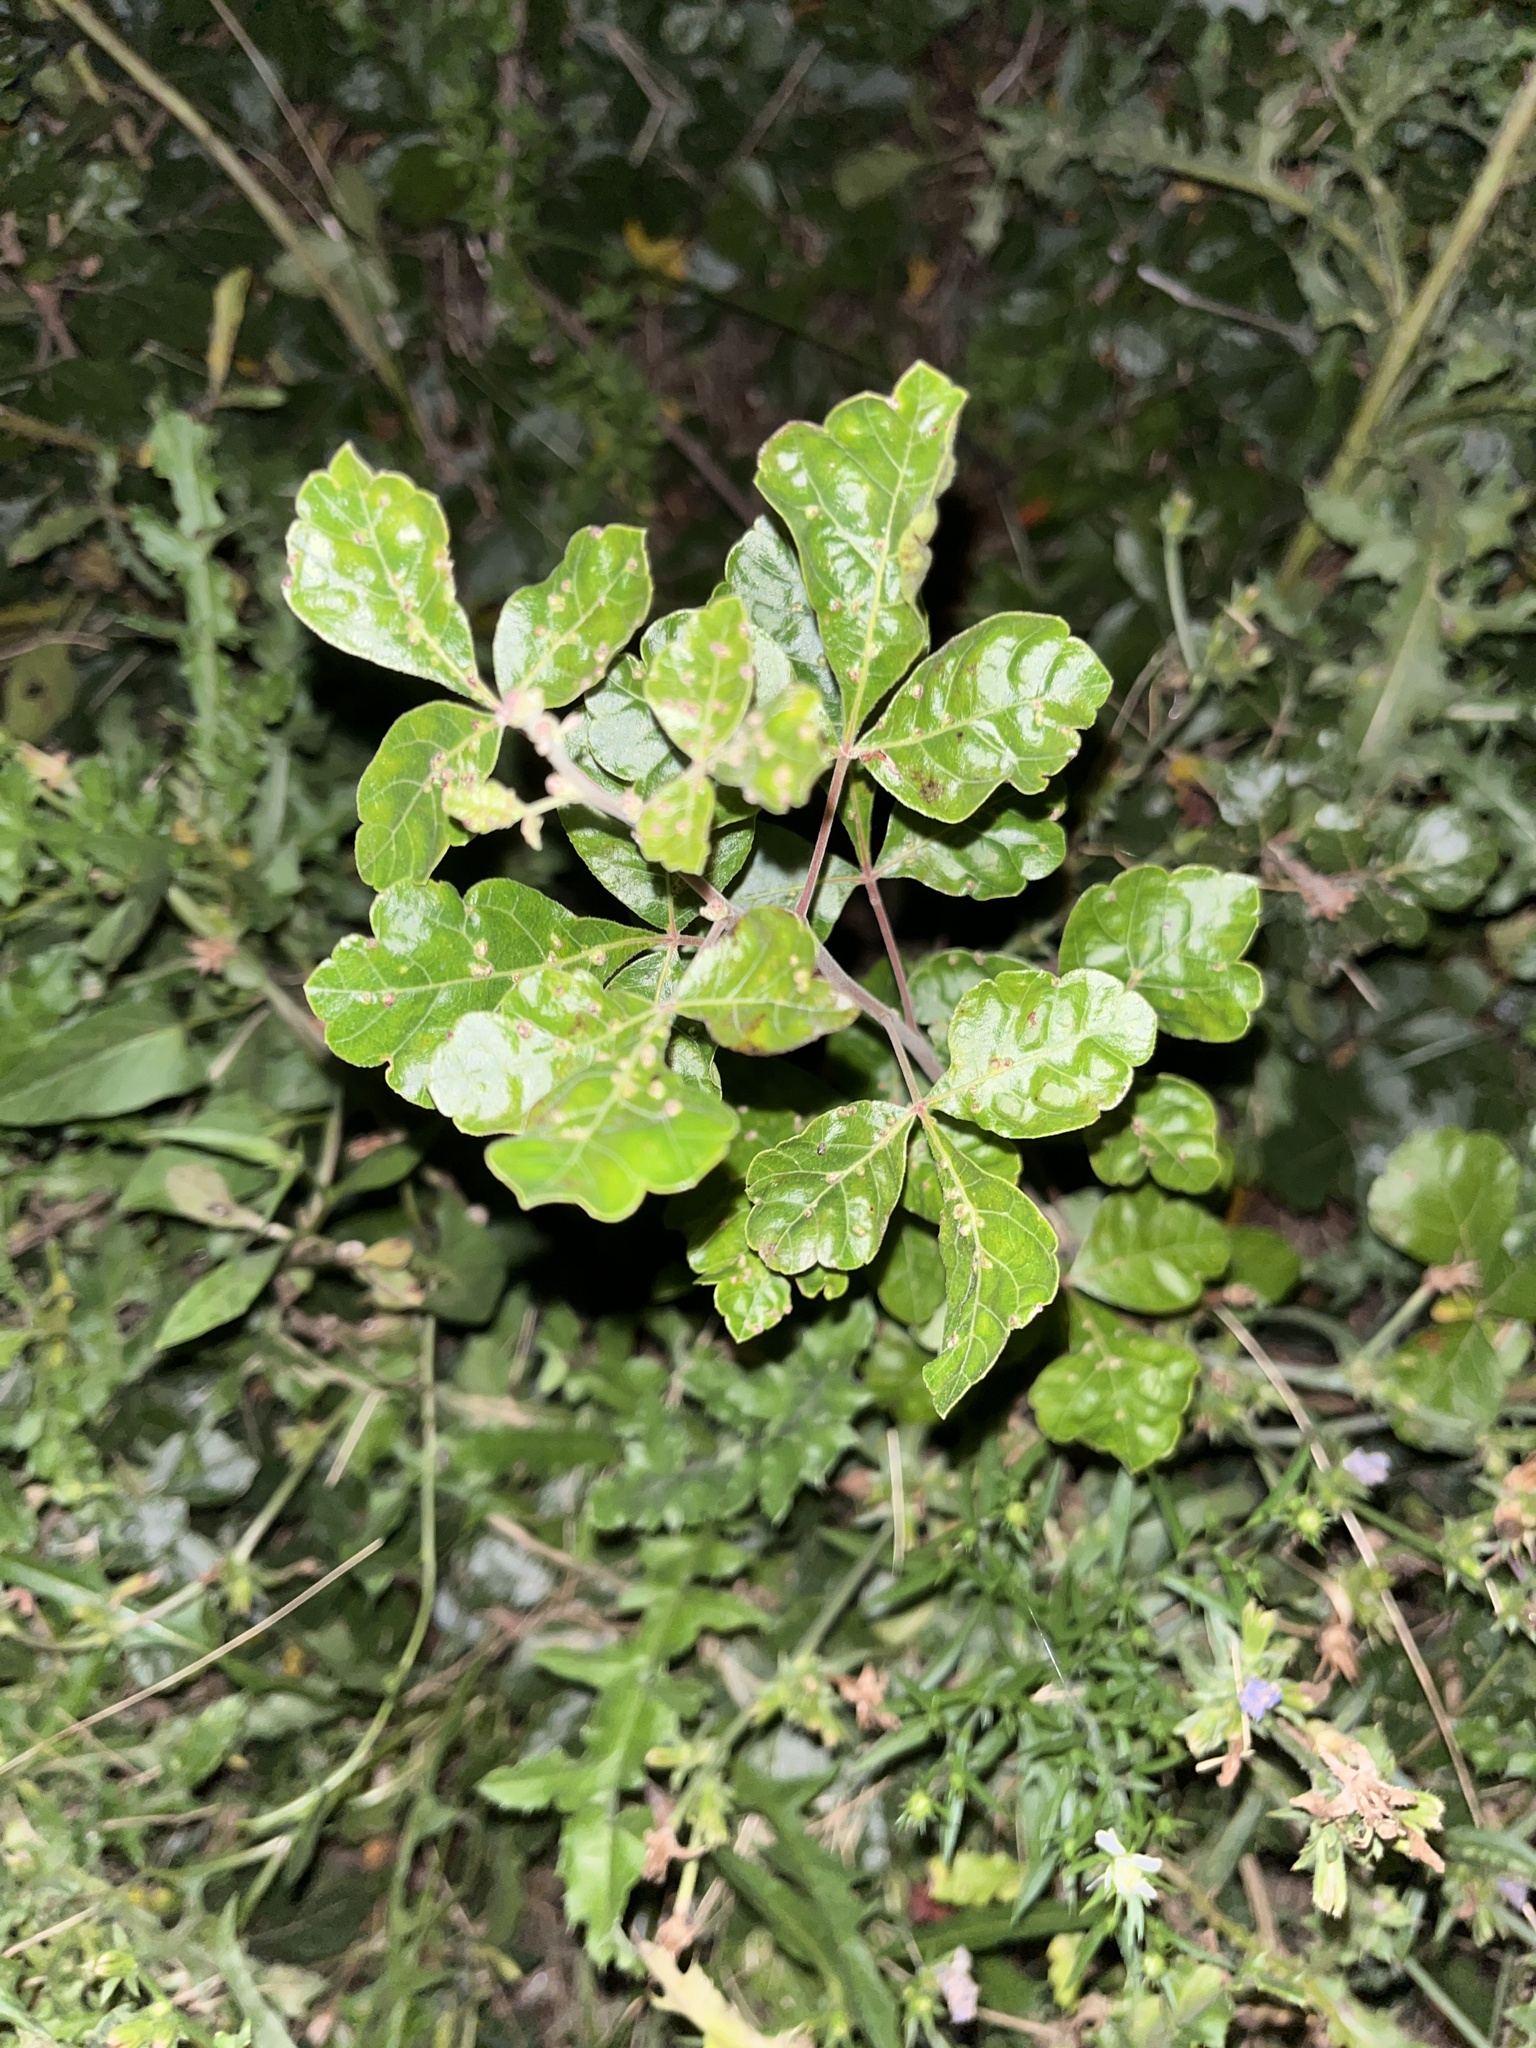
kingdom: Plantae
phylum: Tracheophyta
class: Magnoliopsida
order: Sapindales
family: Anacardiaceae
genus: Rhus
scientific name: Rhus aromatica
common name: Aromatic sumac
